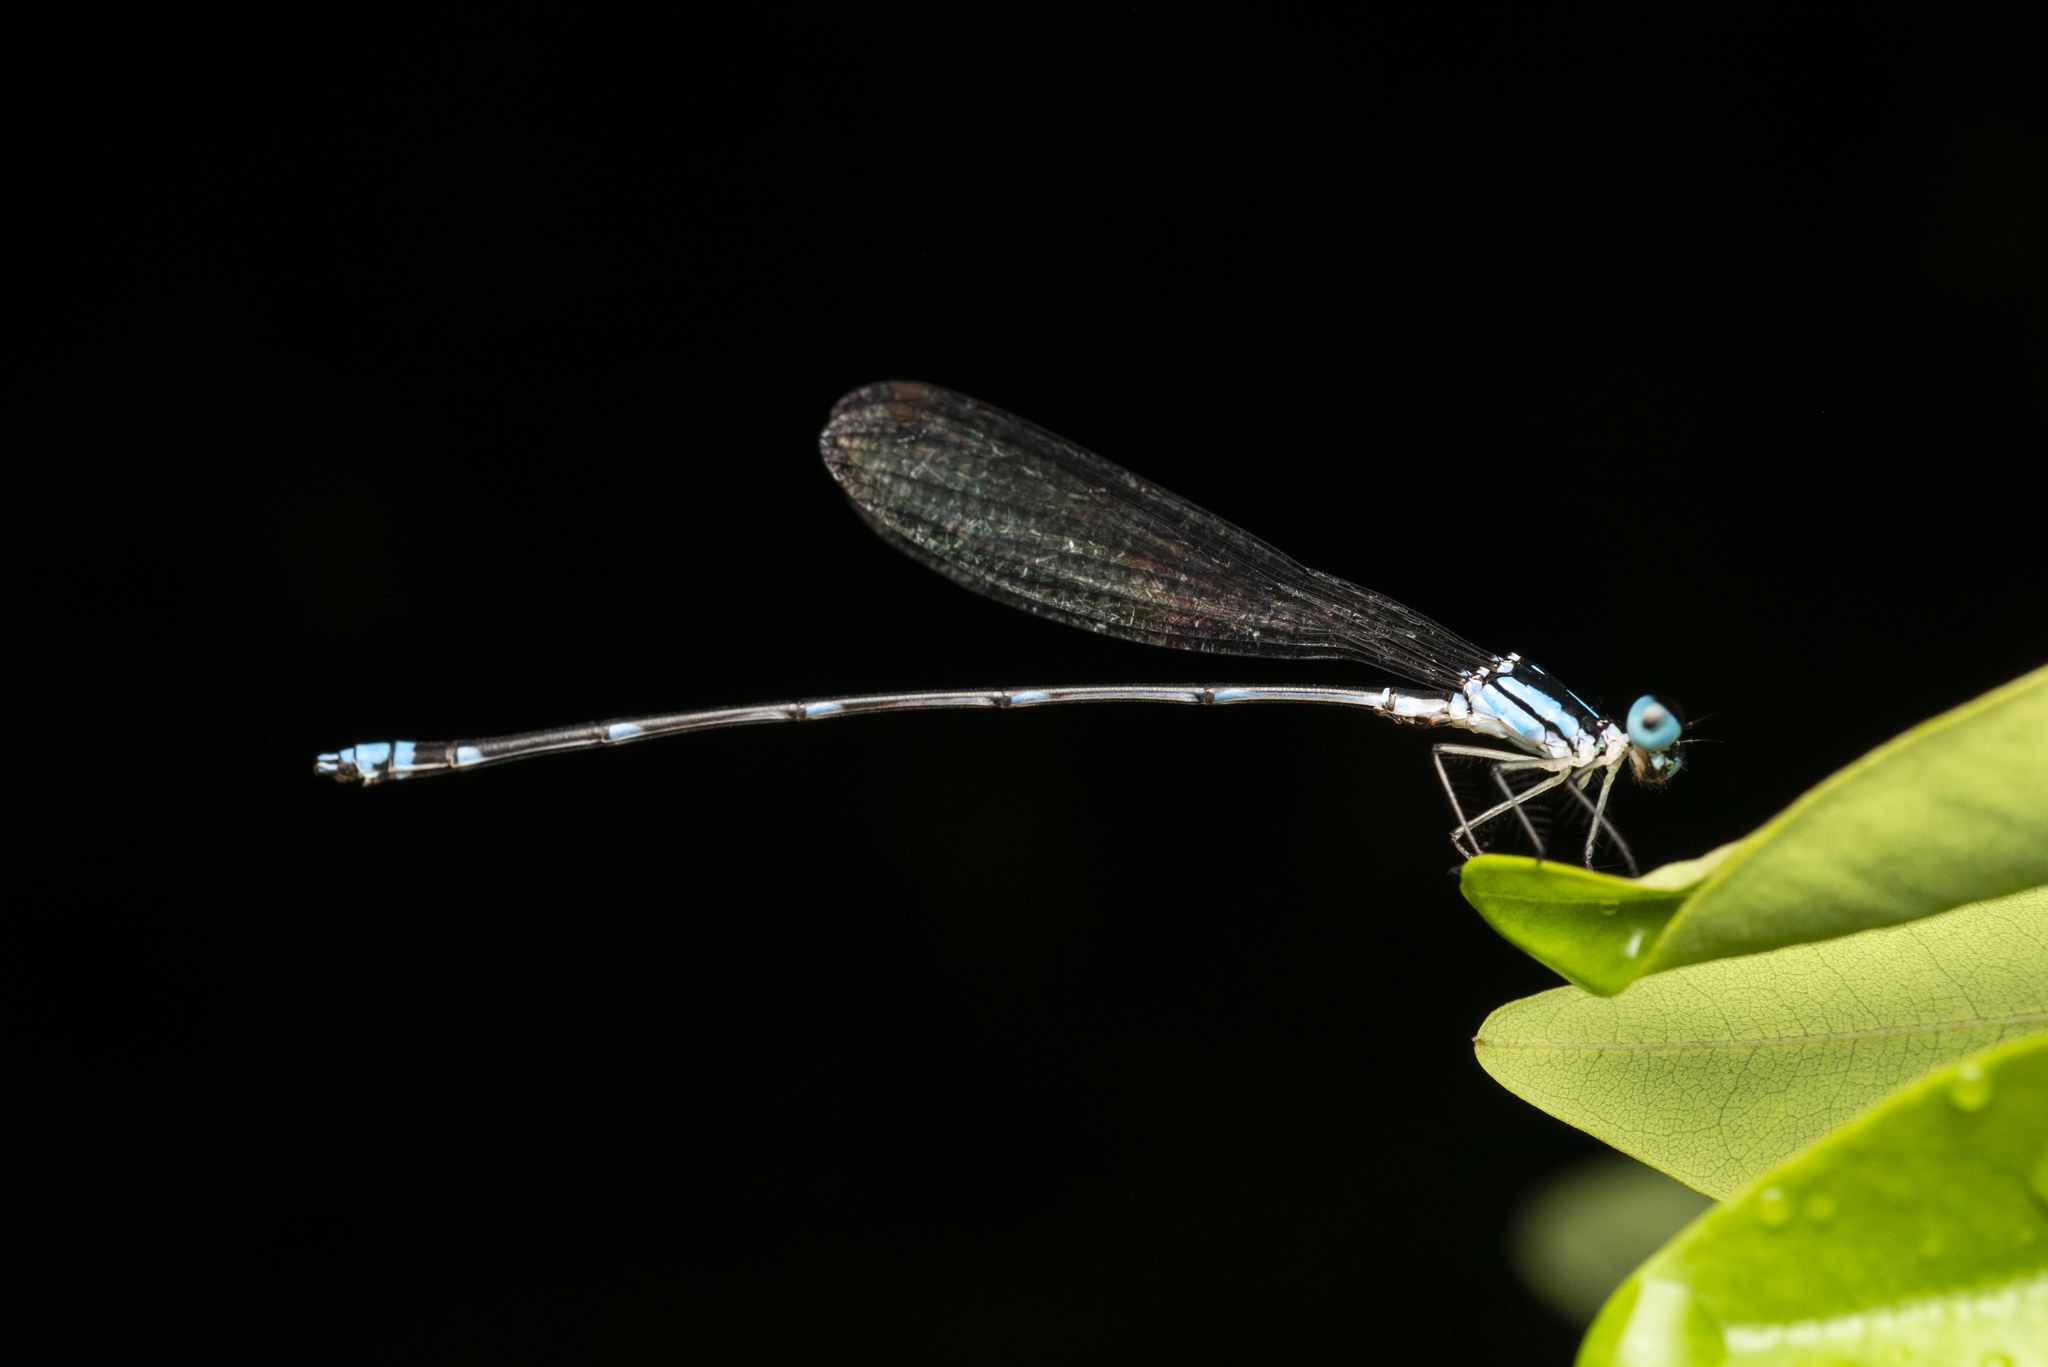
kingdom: Animalia
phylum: Arthropoda
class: Insecta
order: Odonata
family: Platycnemididae
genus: Coeliccia
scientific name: Coeliccia cyanomelas
